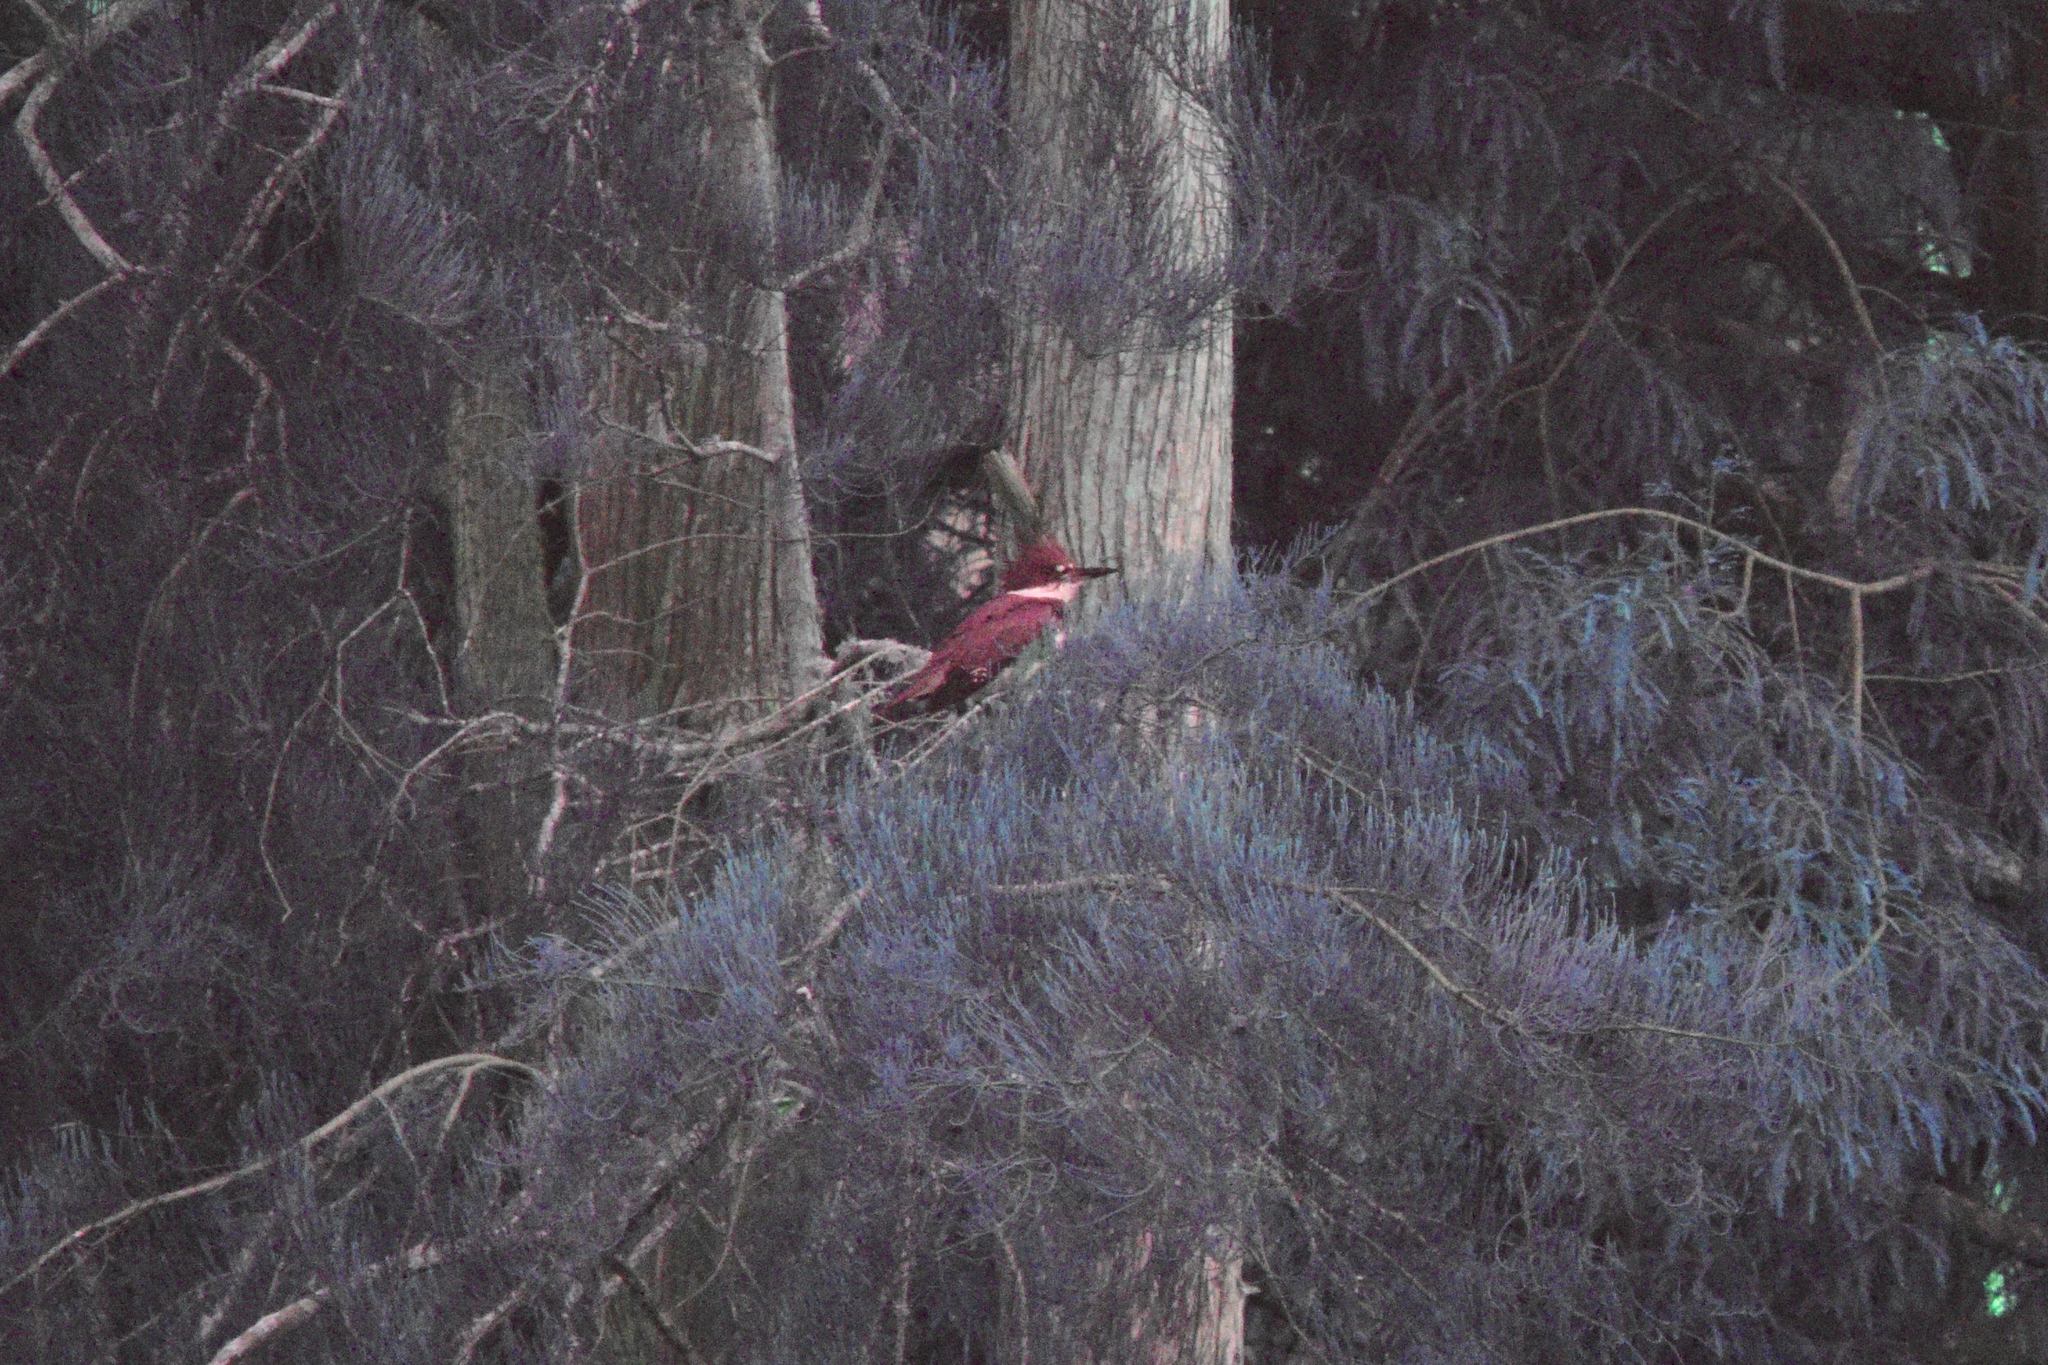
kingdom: Animalia
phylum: Chordata
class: Aves
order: Coraciiformes
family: Alcedinidae
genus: Megaceryle
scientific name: Megaceryle alcyon
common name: Belted kingfisher
